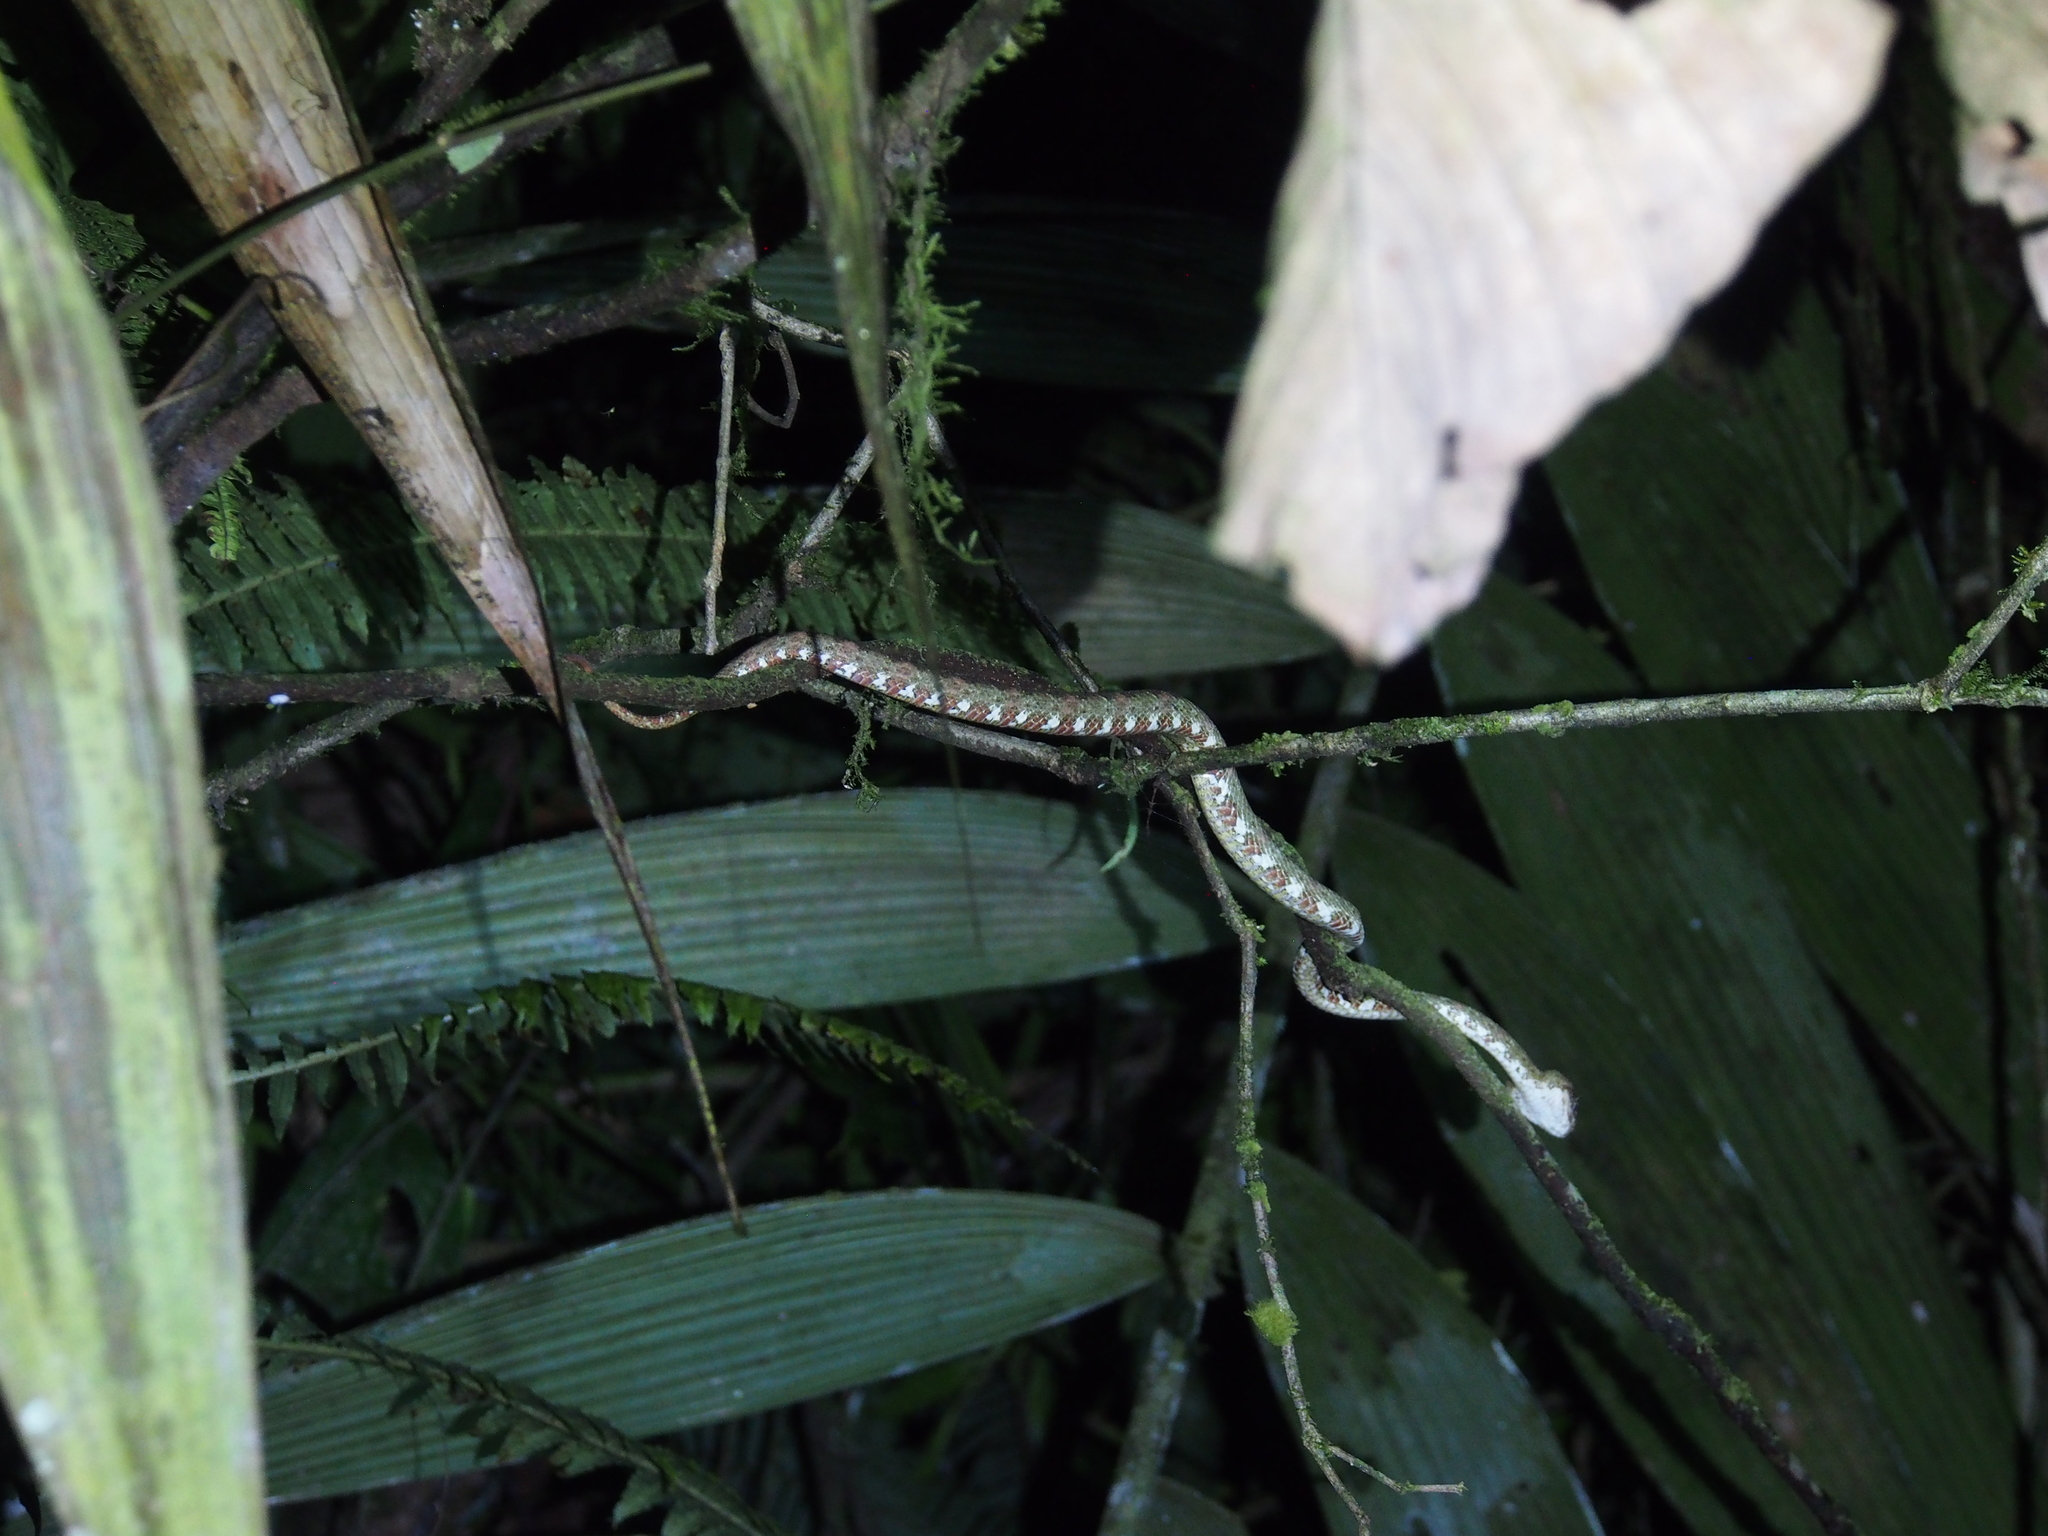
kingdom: Animalia
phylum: Chordata
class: Squamata
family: Viperidae
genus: Bothriechis
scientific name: Bothriechis schlegelii
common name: Eyelash viper
